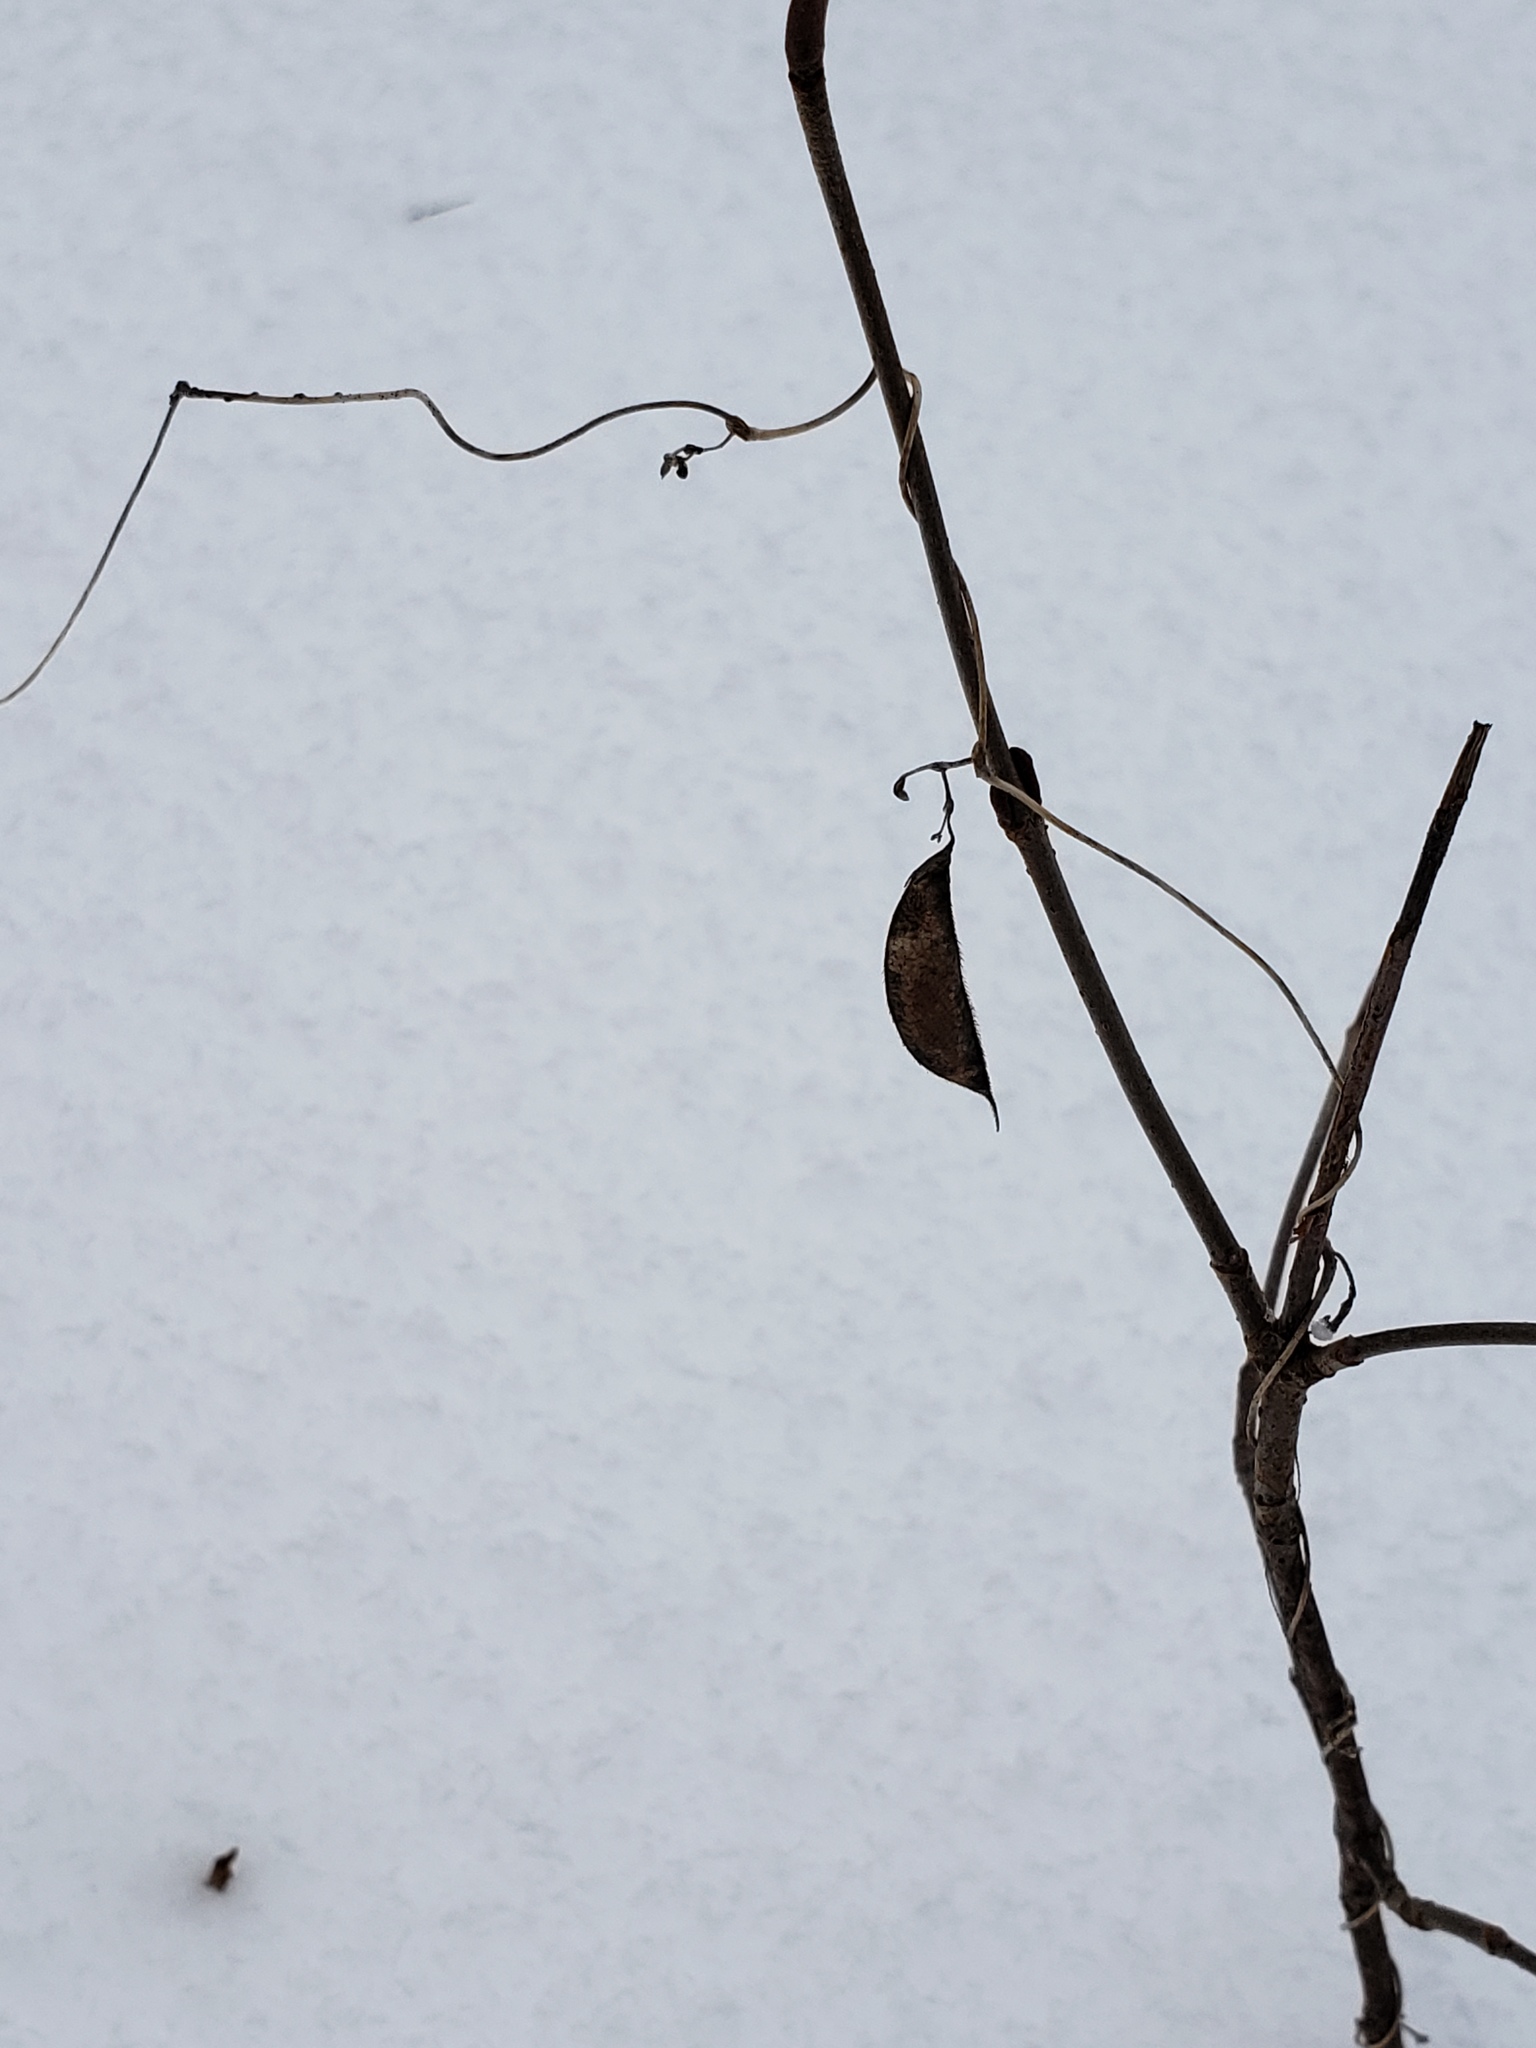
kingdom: Plantae
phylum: Tracheophyta
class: Magnoliopsida
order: Fabales
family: Fabaceae
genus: Amphicarpaea
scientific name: Amphicarpaea bracteata
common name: American hog peanut
